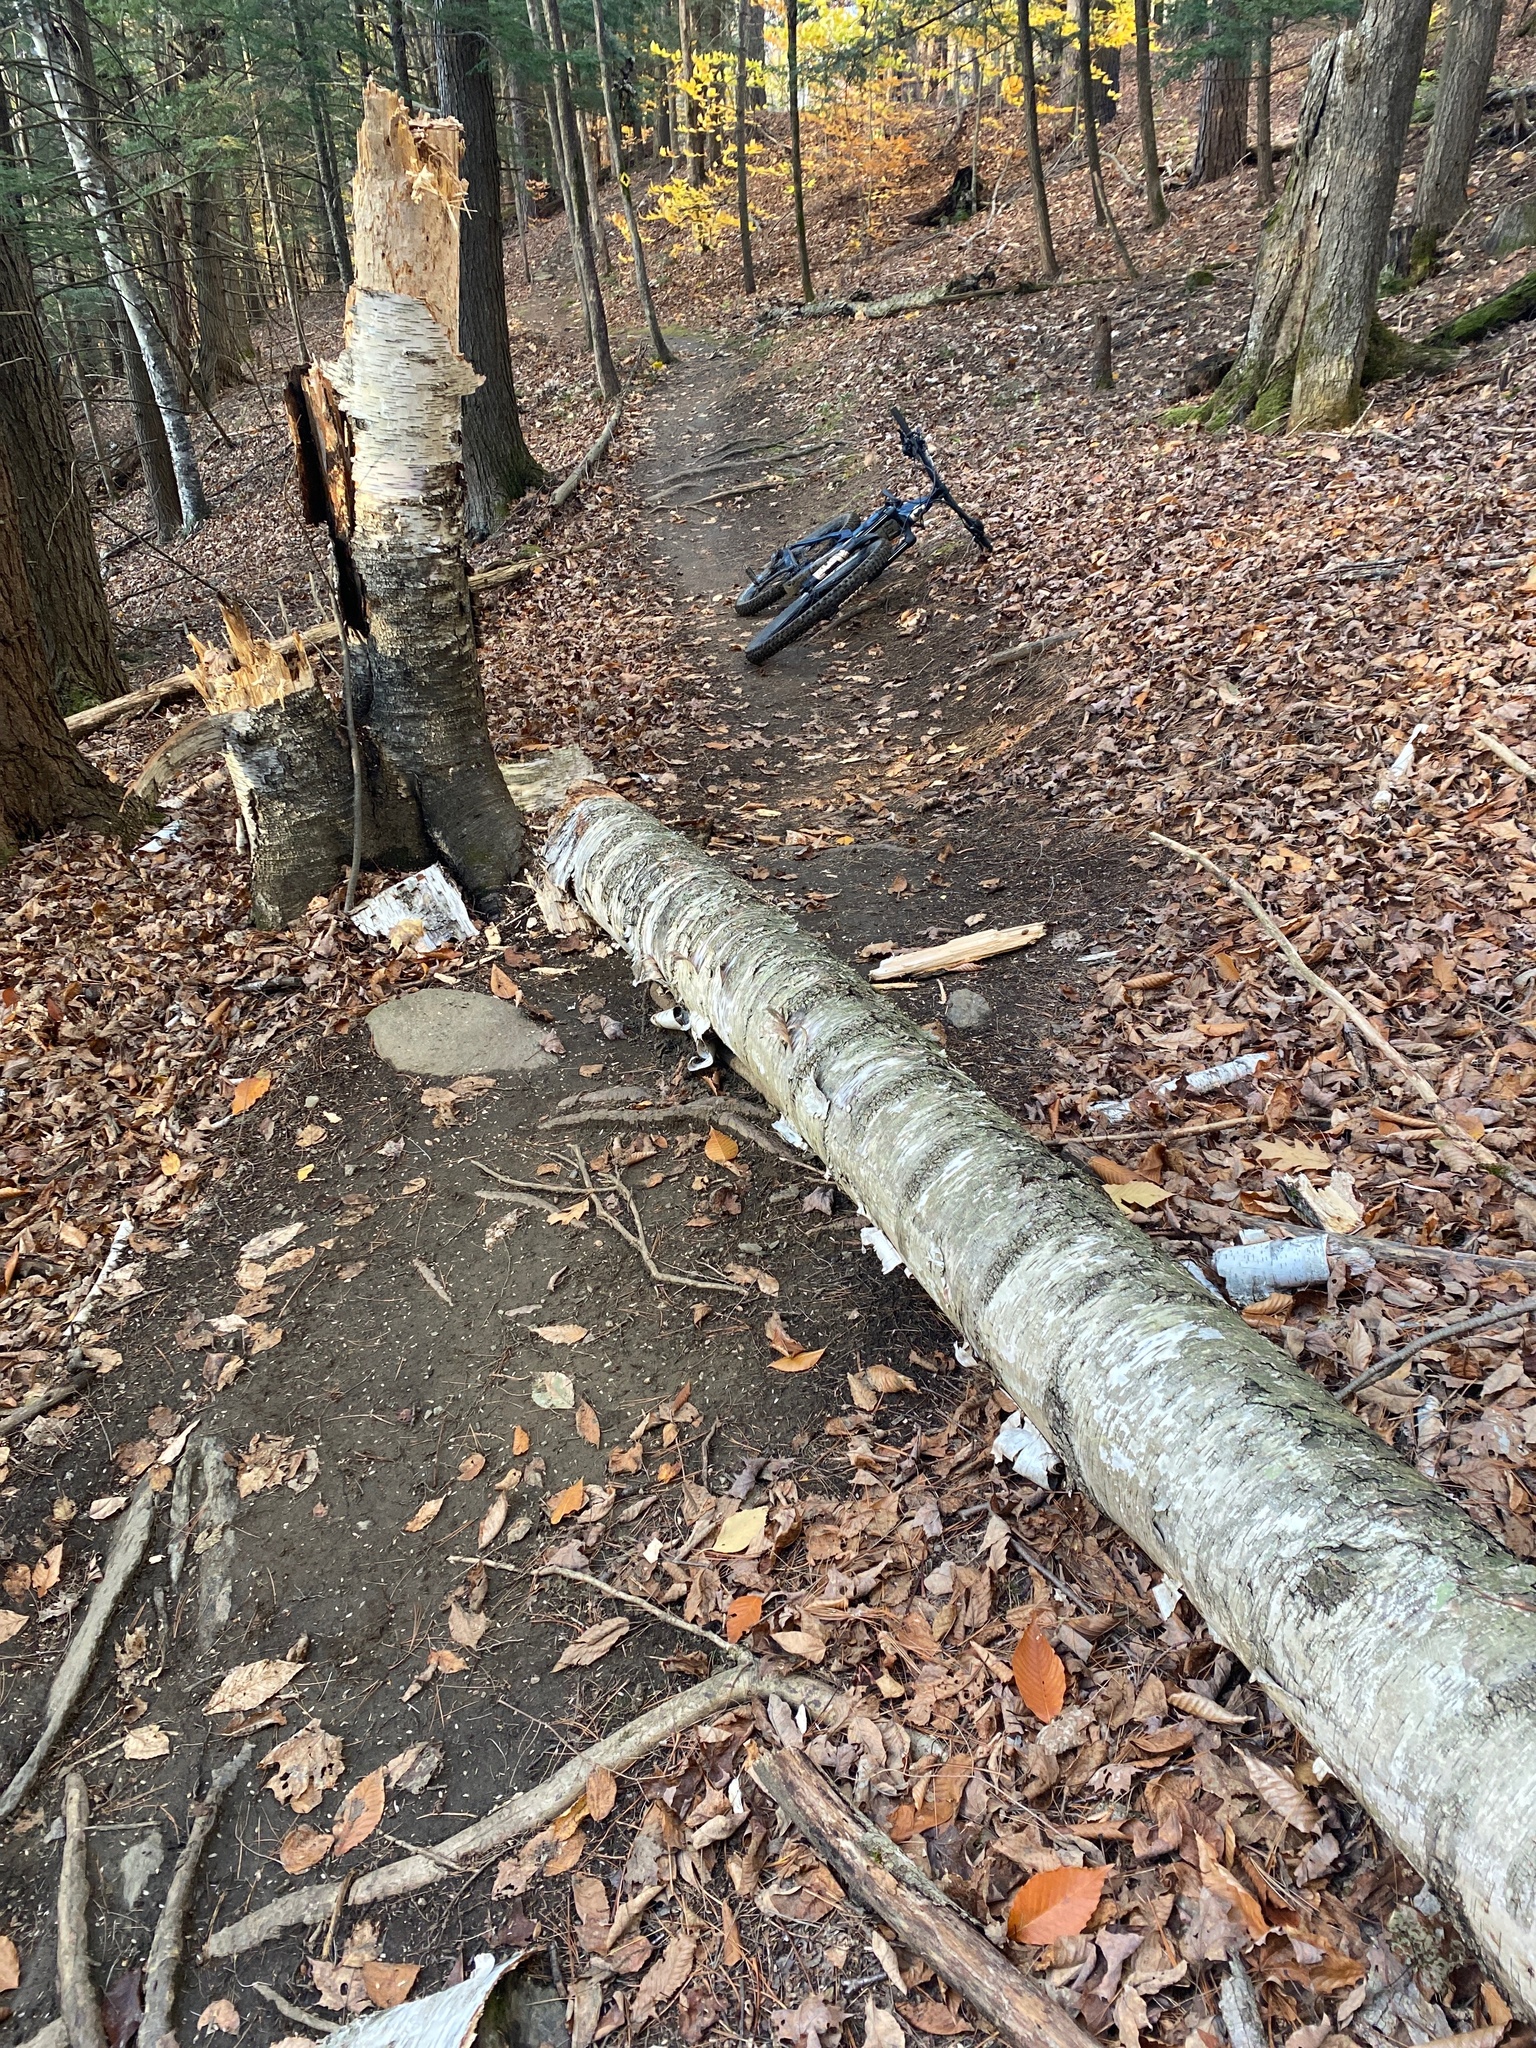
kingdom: Plantae
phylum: Tracheophyta
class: Magnoliopsida
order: Fagales
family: Betulaceae
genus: Betula
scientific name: Betula papyrifera
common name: Paper birch
